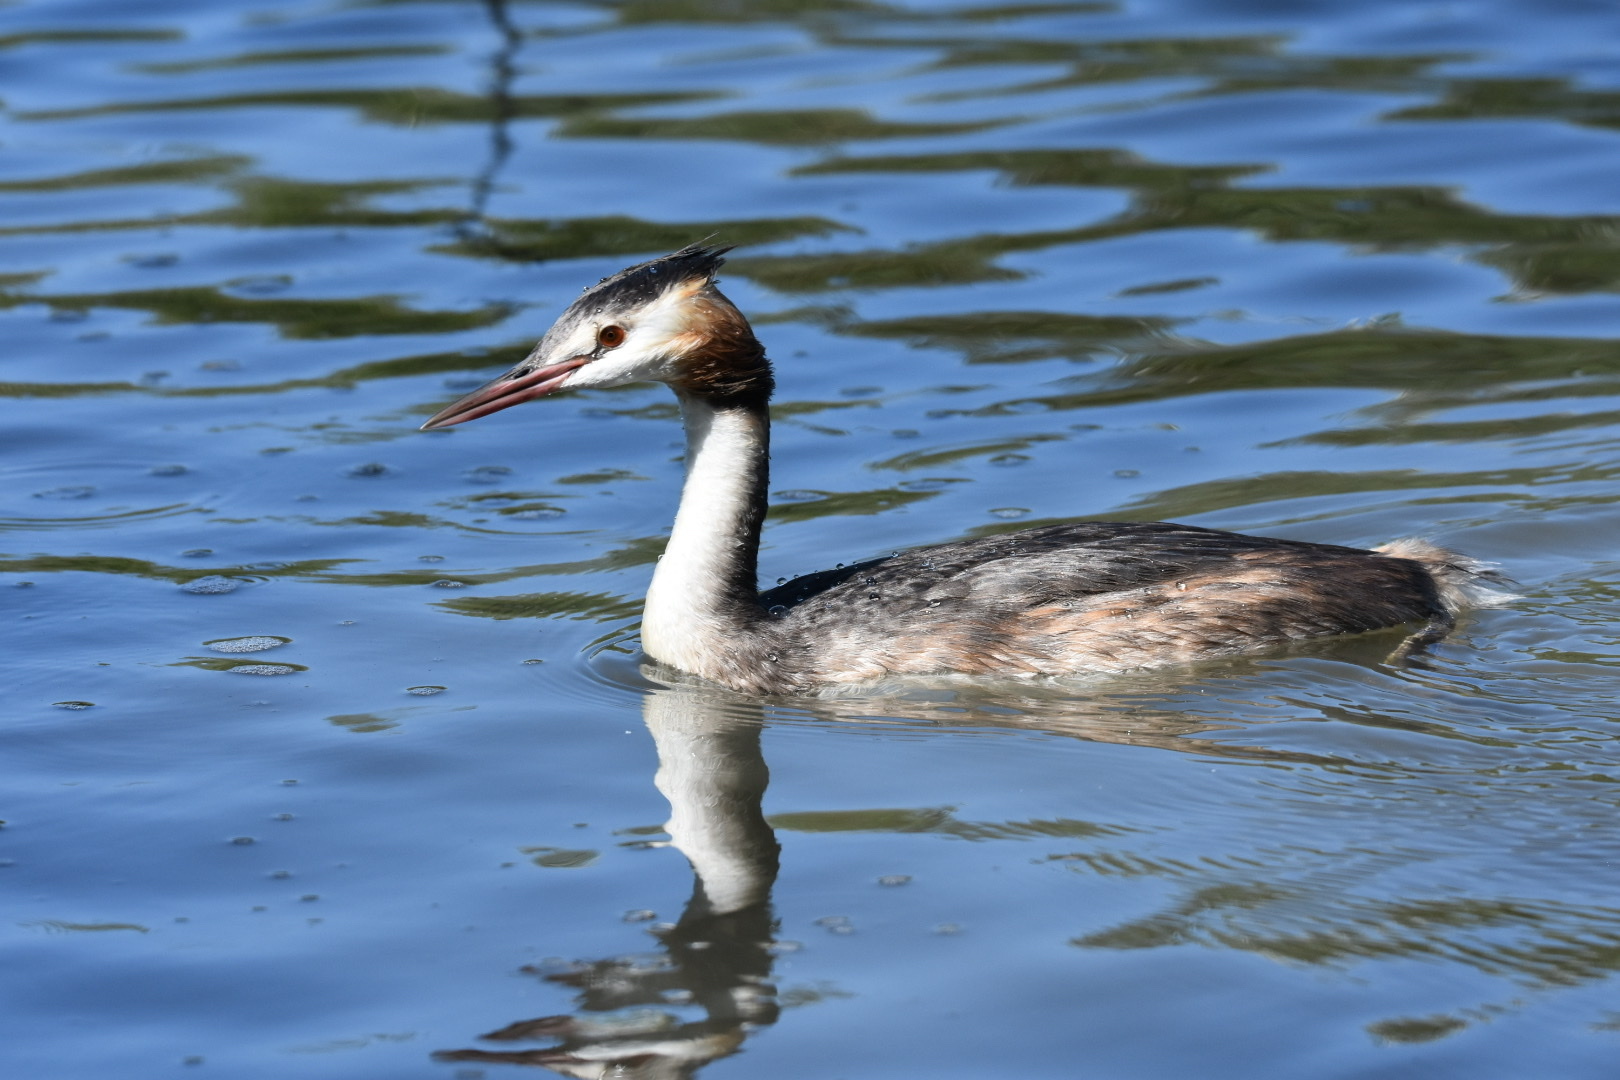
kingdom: Animalia
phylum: Chordata
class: Aves
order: Podicipediformes
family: Podicipedidae
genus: Podiceps
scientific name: Podiceps cristatus
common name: Great crested grebe
